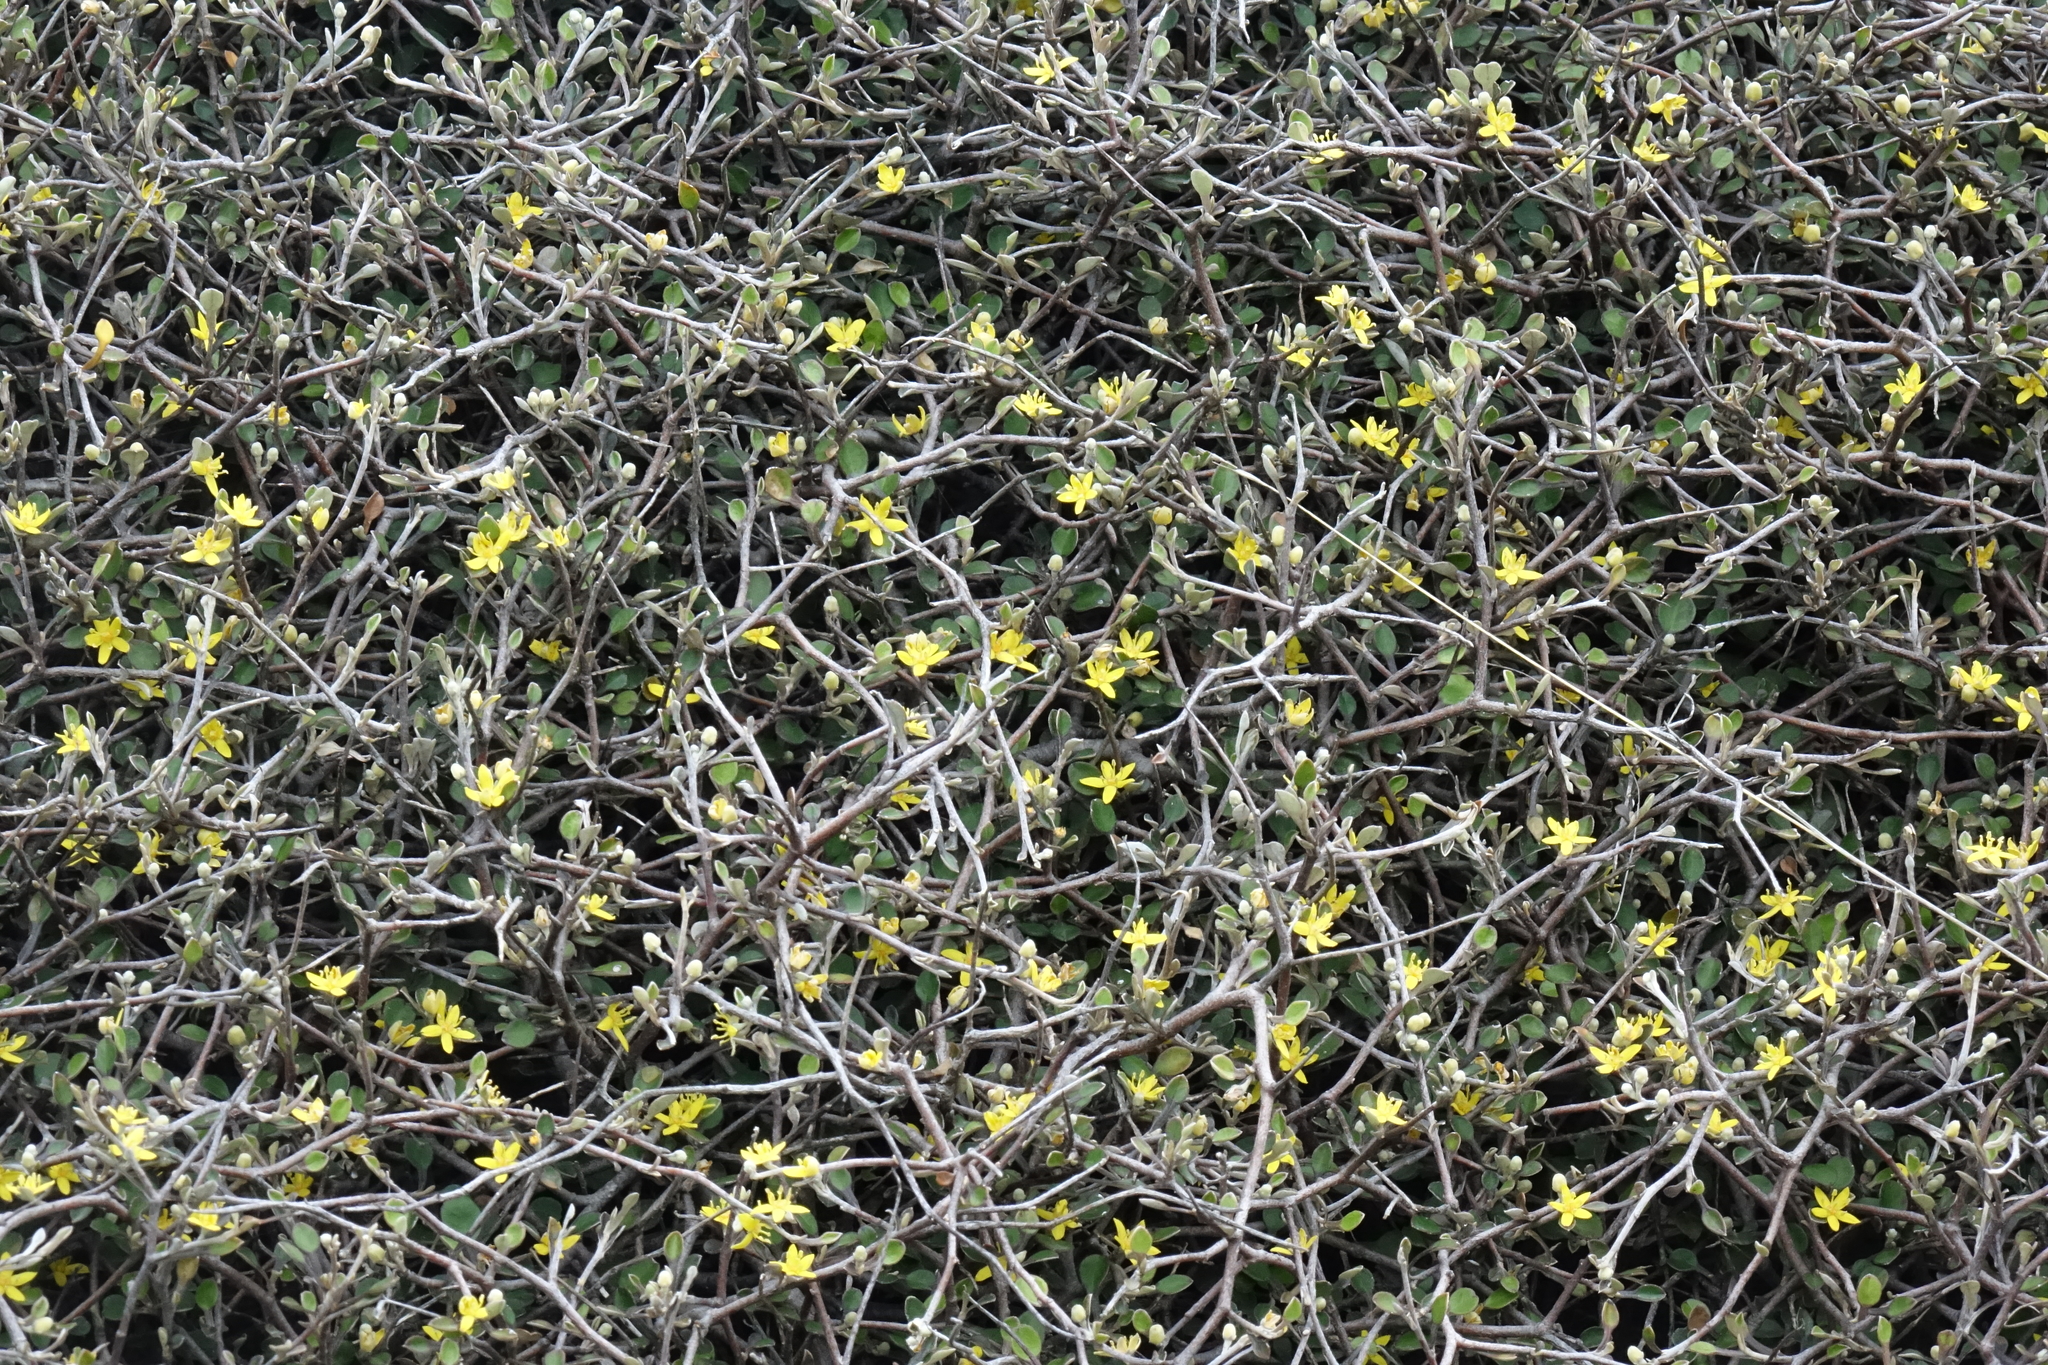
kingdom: Plantae
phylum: Tracheophyta
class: Magnoliopsida
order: Asterales
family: Argophyllaceae
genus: Corokia
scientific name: Corokia cotoneaster
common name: Wire nettingbush
